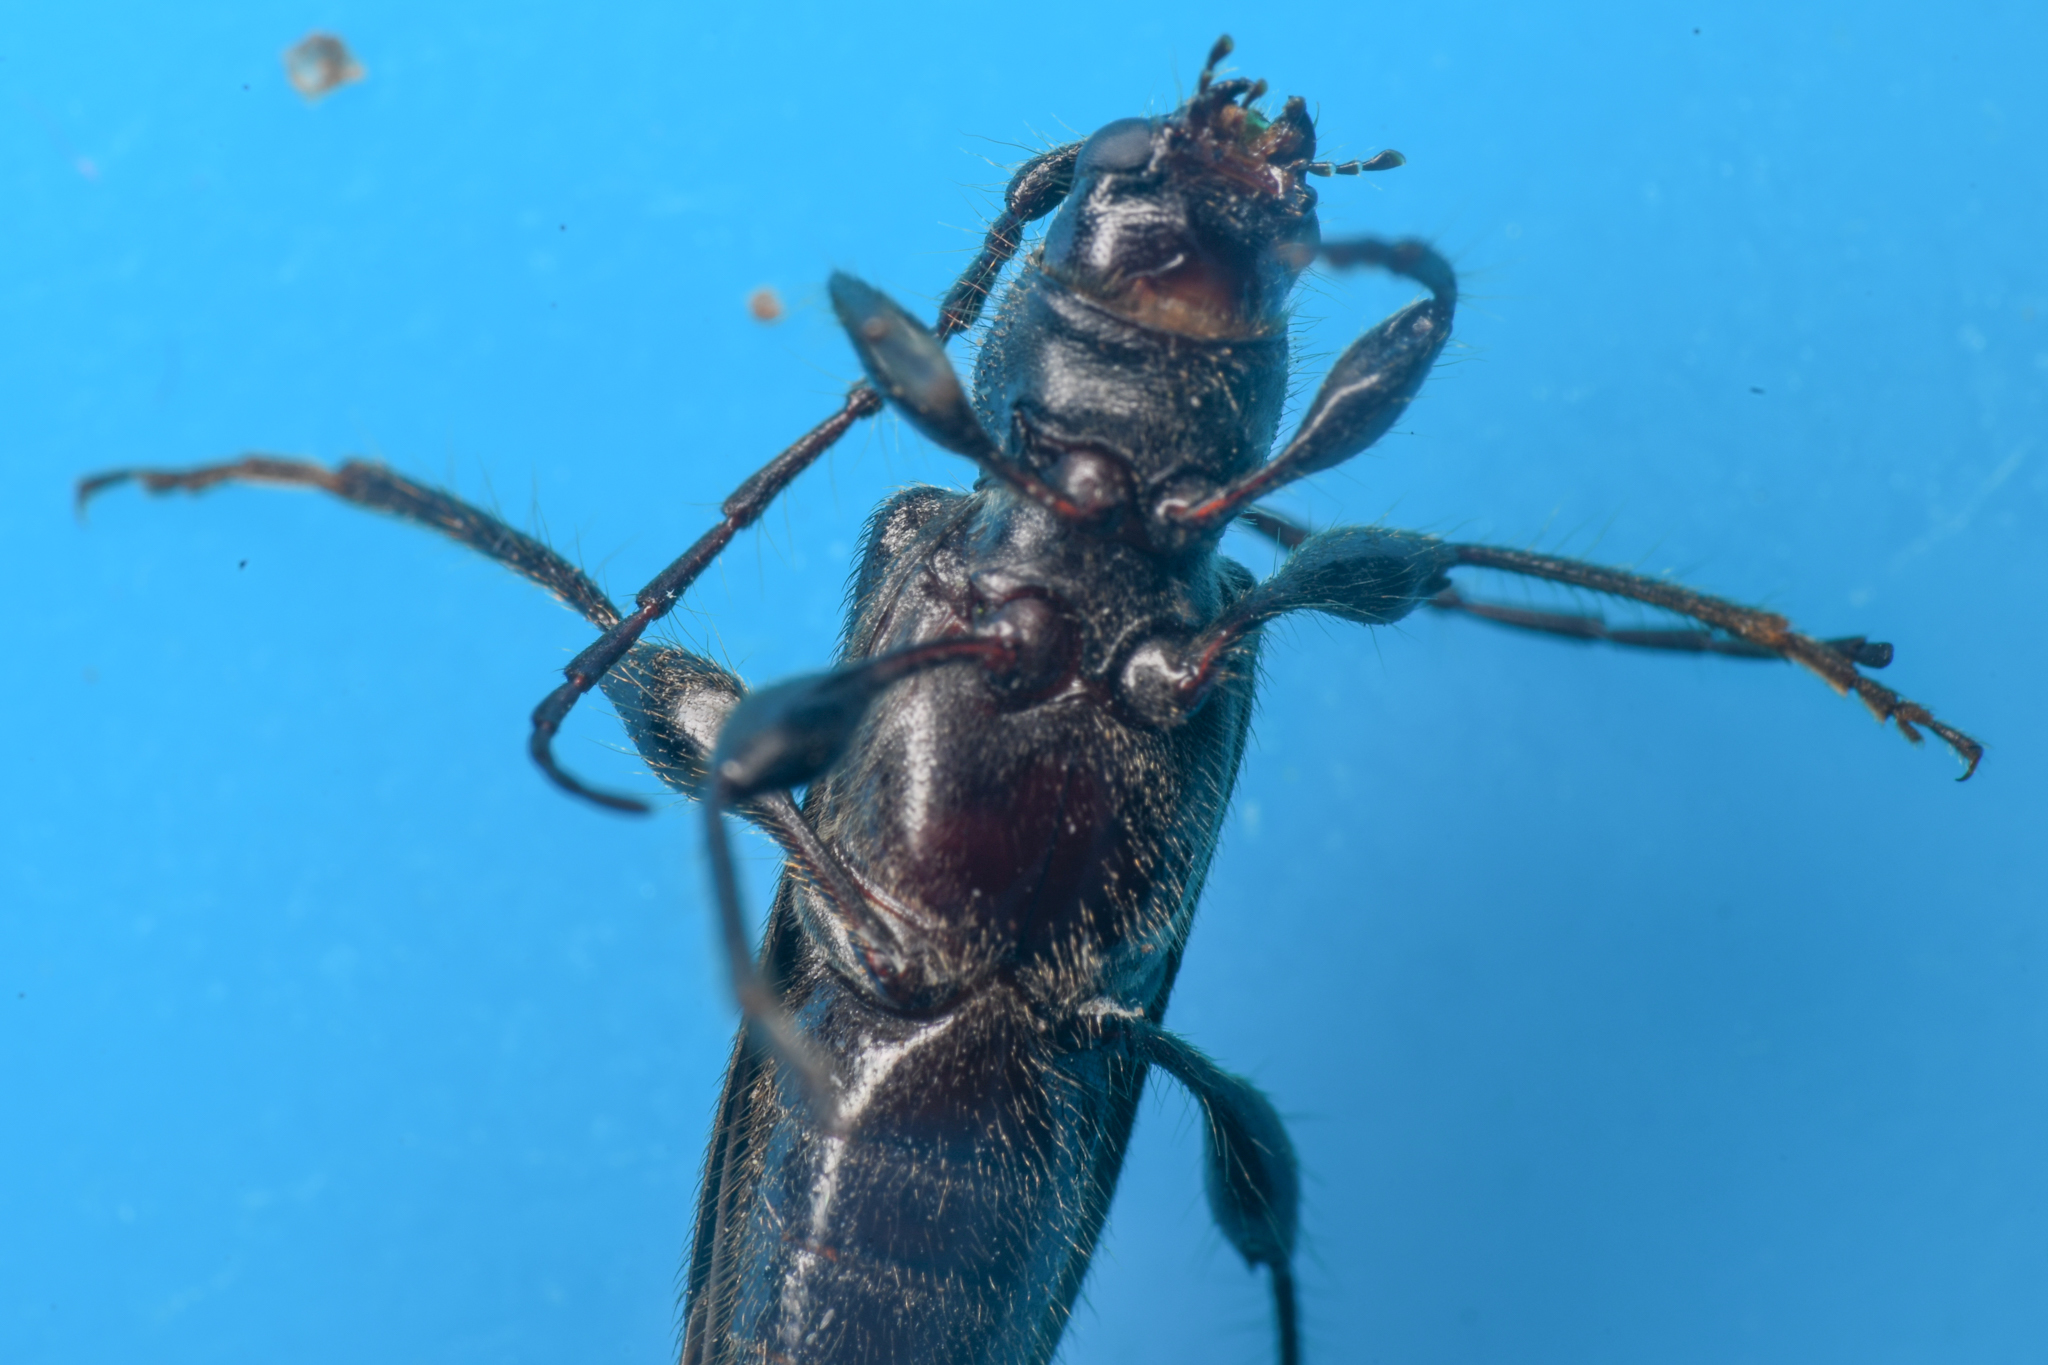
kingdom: Animalia
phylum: Arthropoda
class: Insecta
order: Coleoptera
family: Cerambycidae
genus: Phymatodes
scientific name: Phymatodes grandis
